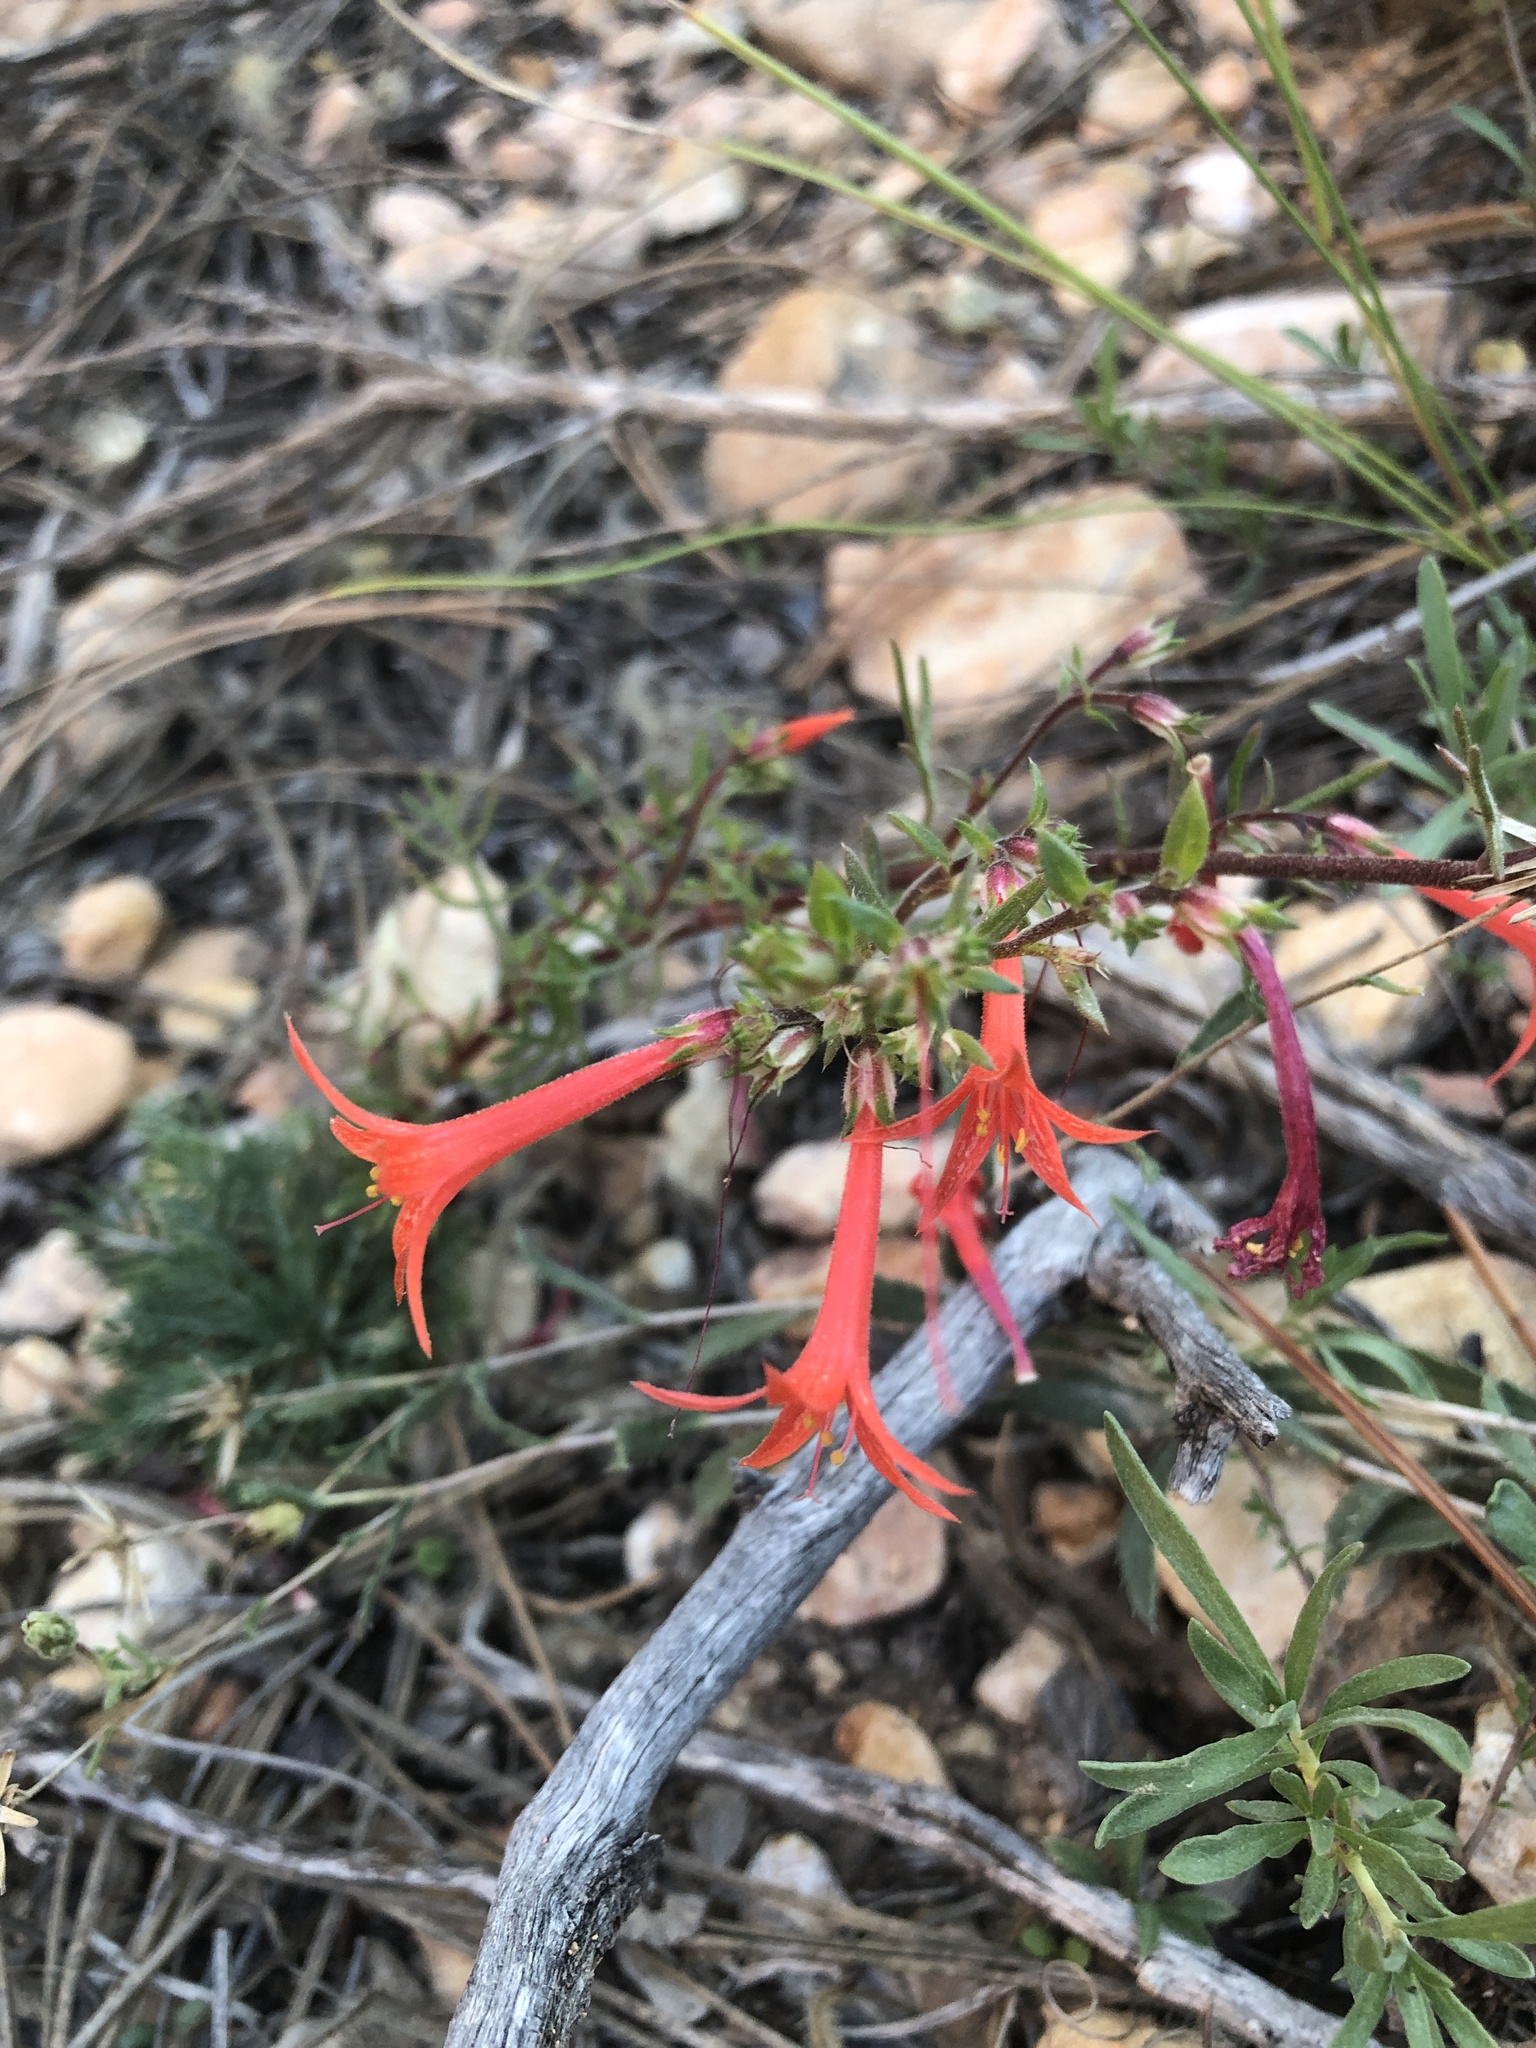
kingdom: Plantae
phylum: Tracheophyta
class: Magnoliopsida
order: Ericales
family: Polemoniaceae
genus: Ipomopsis
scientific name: Ipomopsis aggregata
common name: Scarlet gilia
